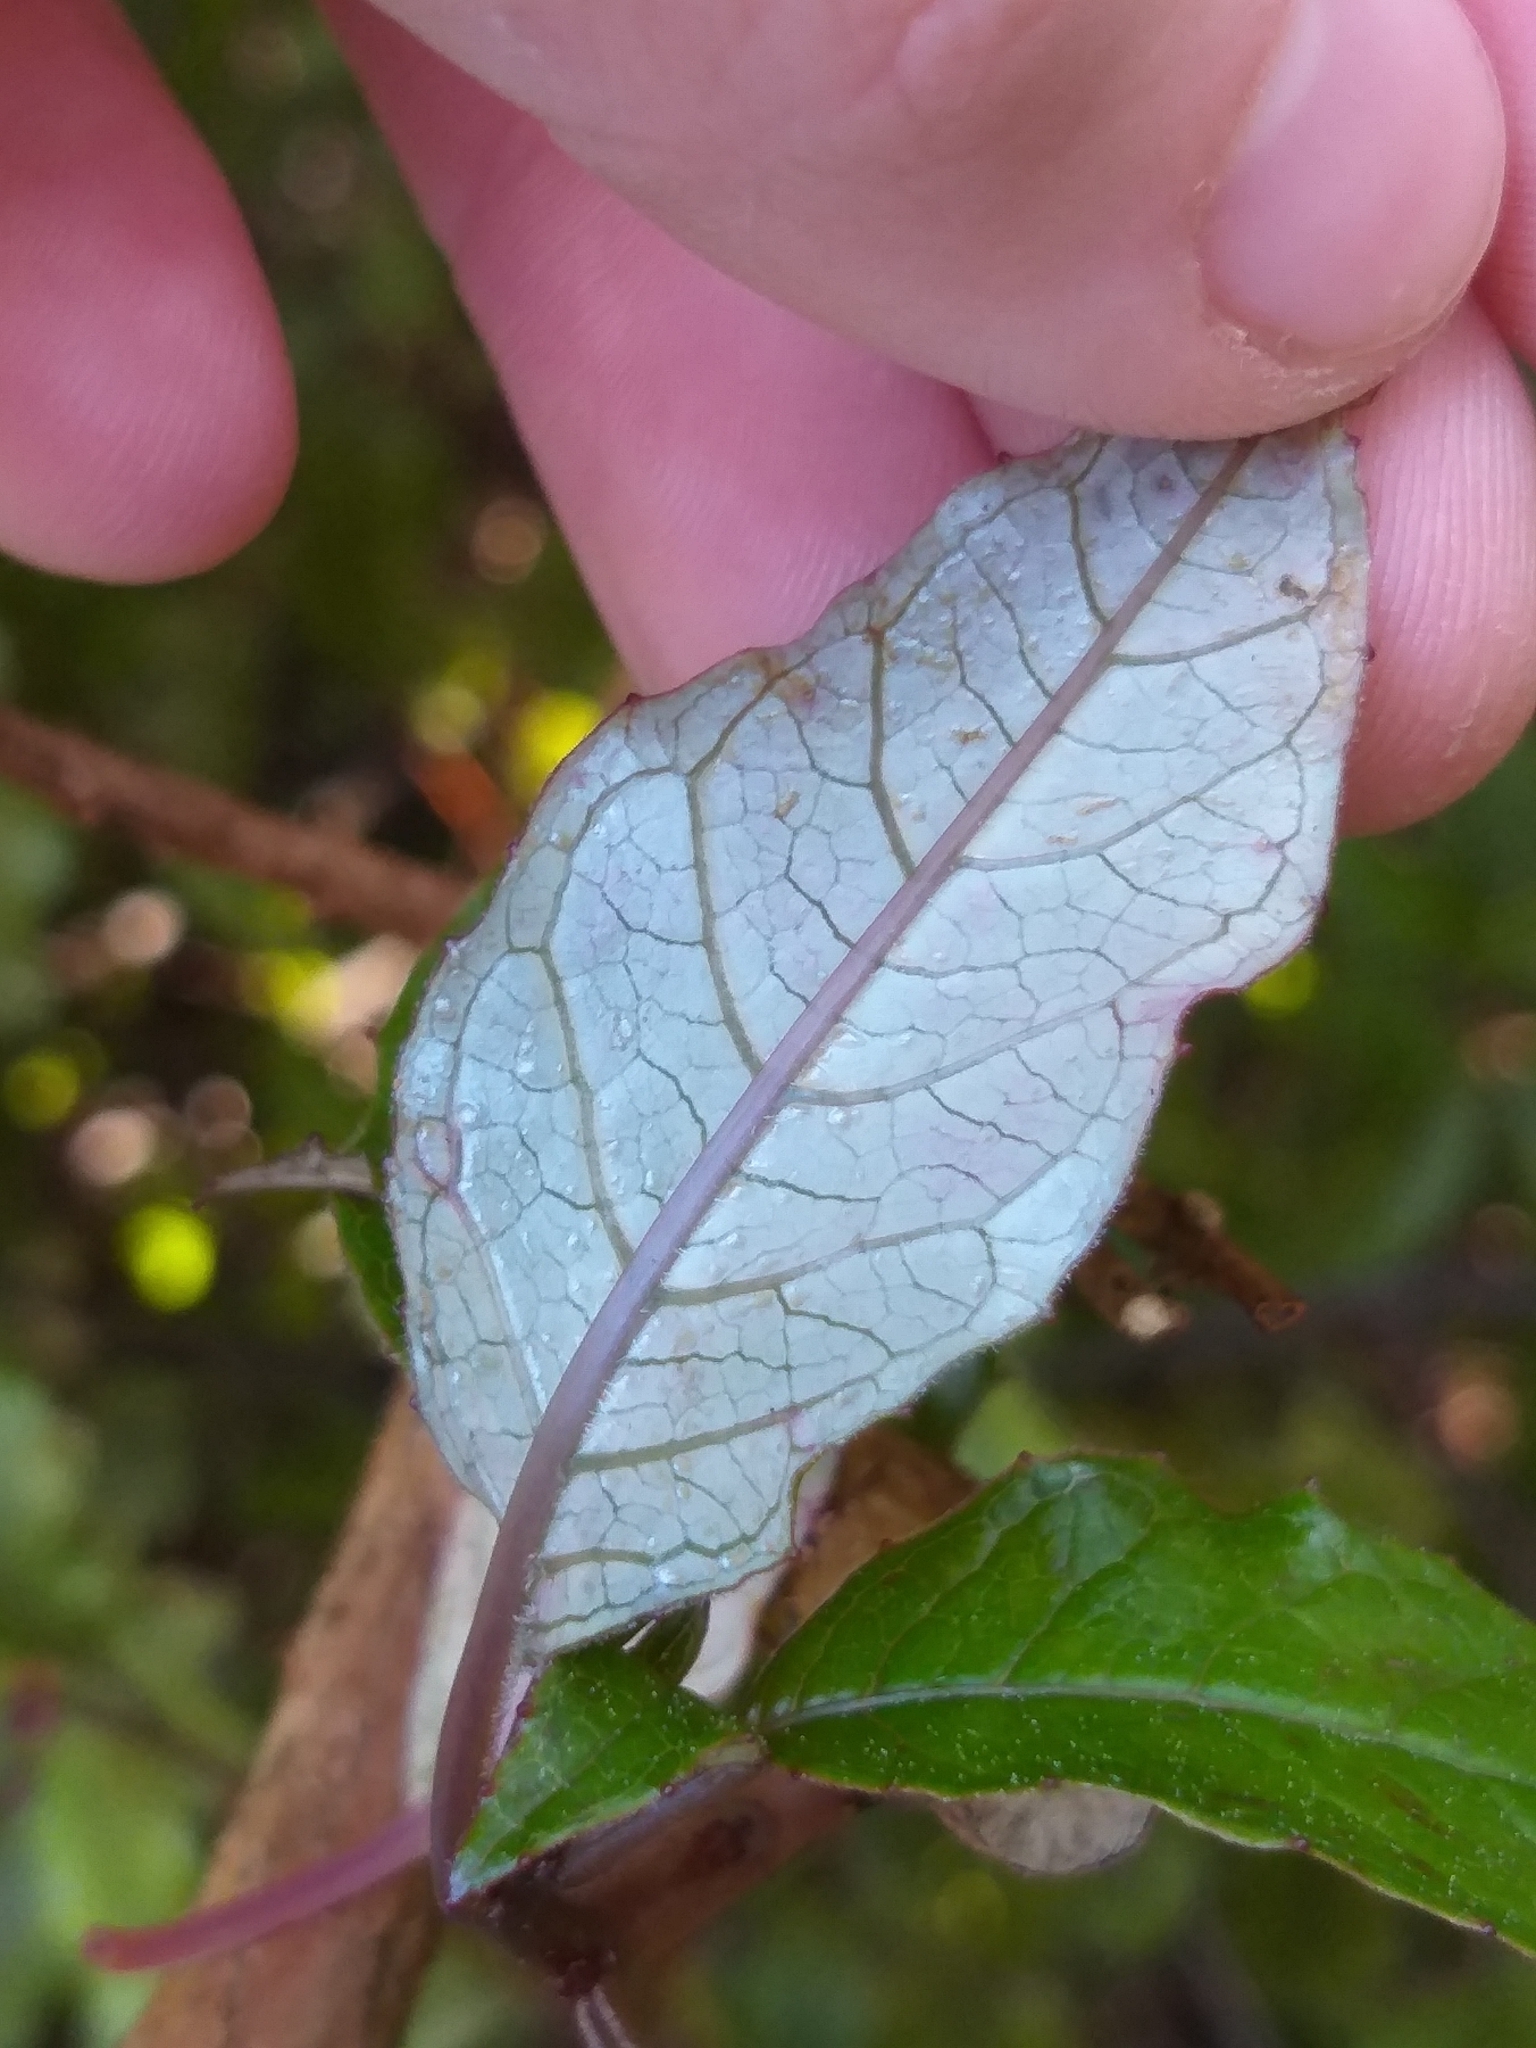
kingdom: Plantae
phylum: Tracheophyta
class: Magnoliopsida
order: Myrtales
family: Onagraceae
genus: Fuchsia
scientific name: Fuchsia excorticata
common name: Tree fuchsia
